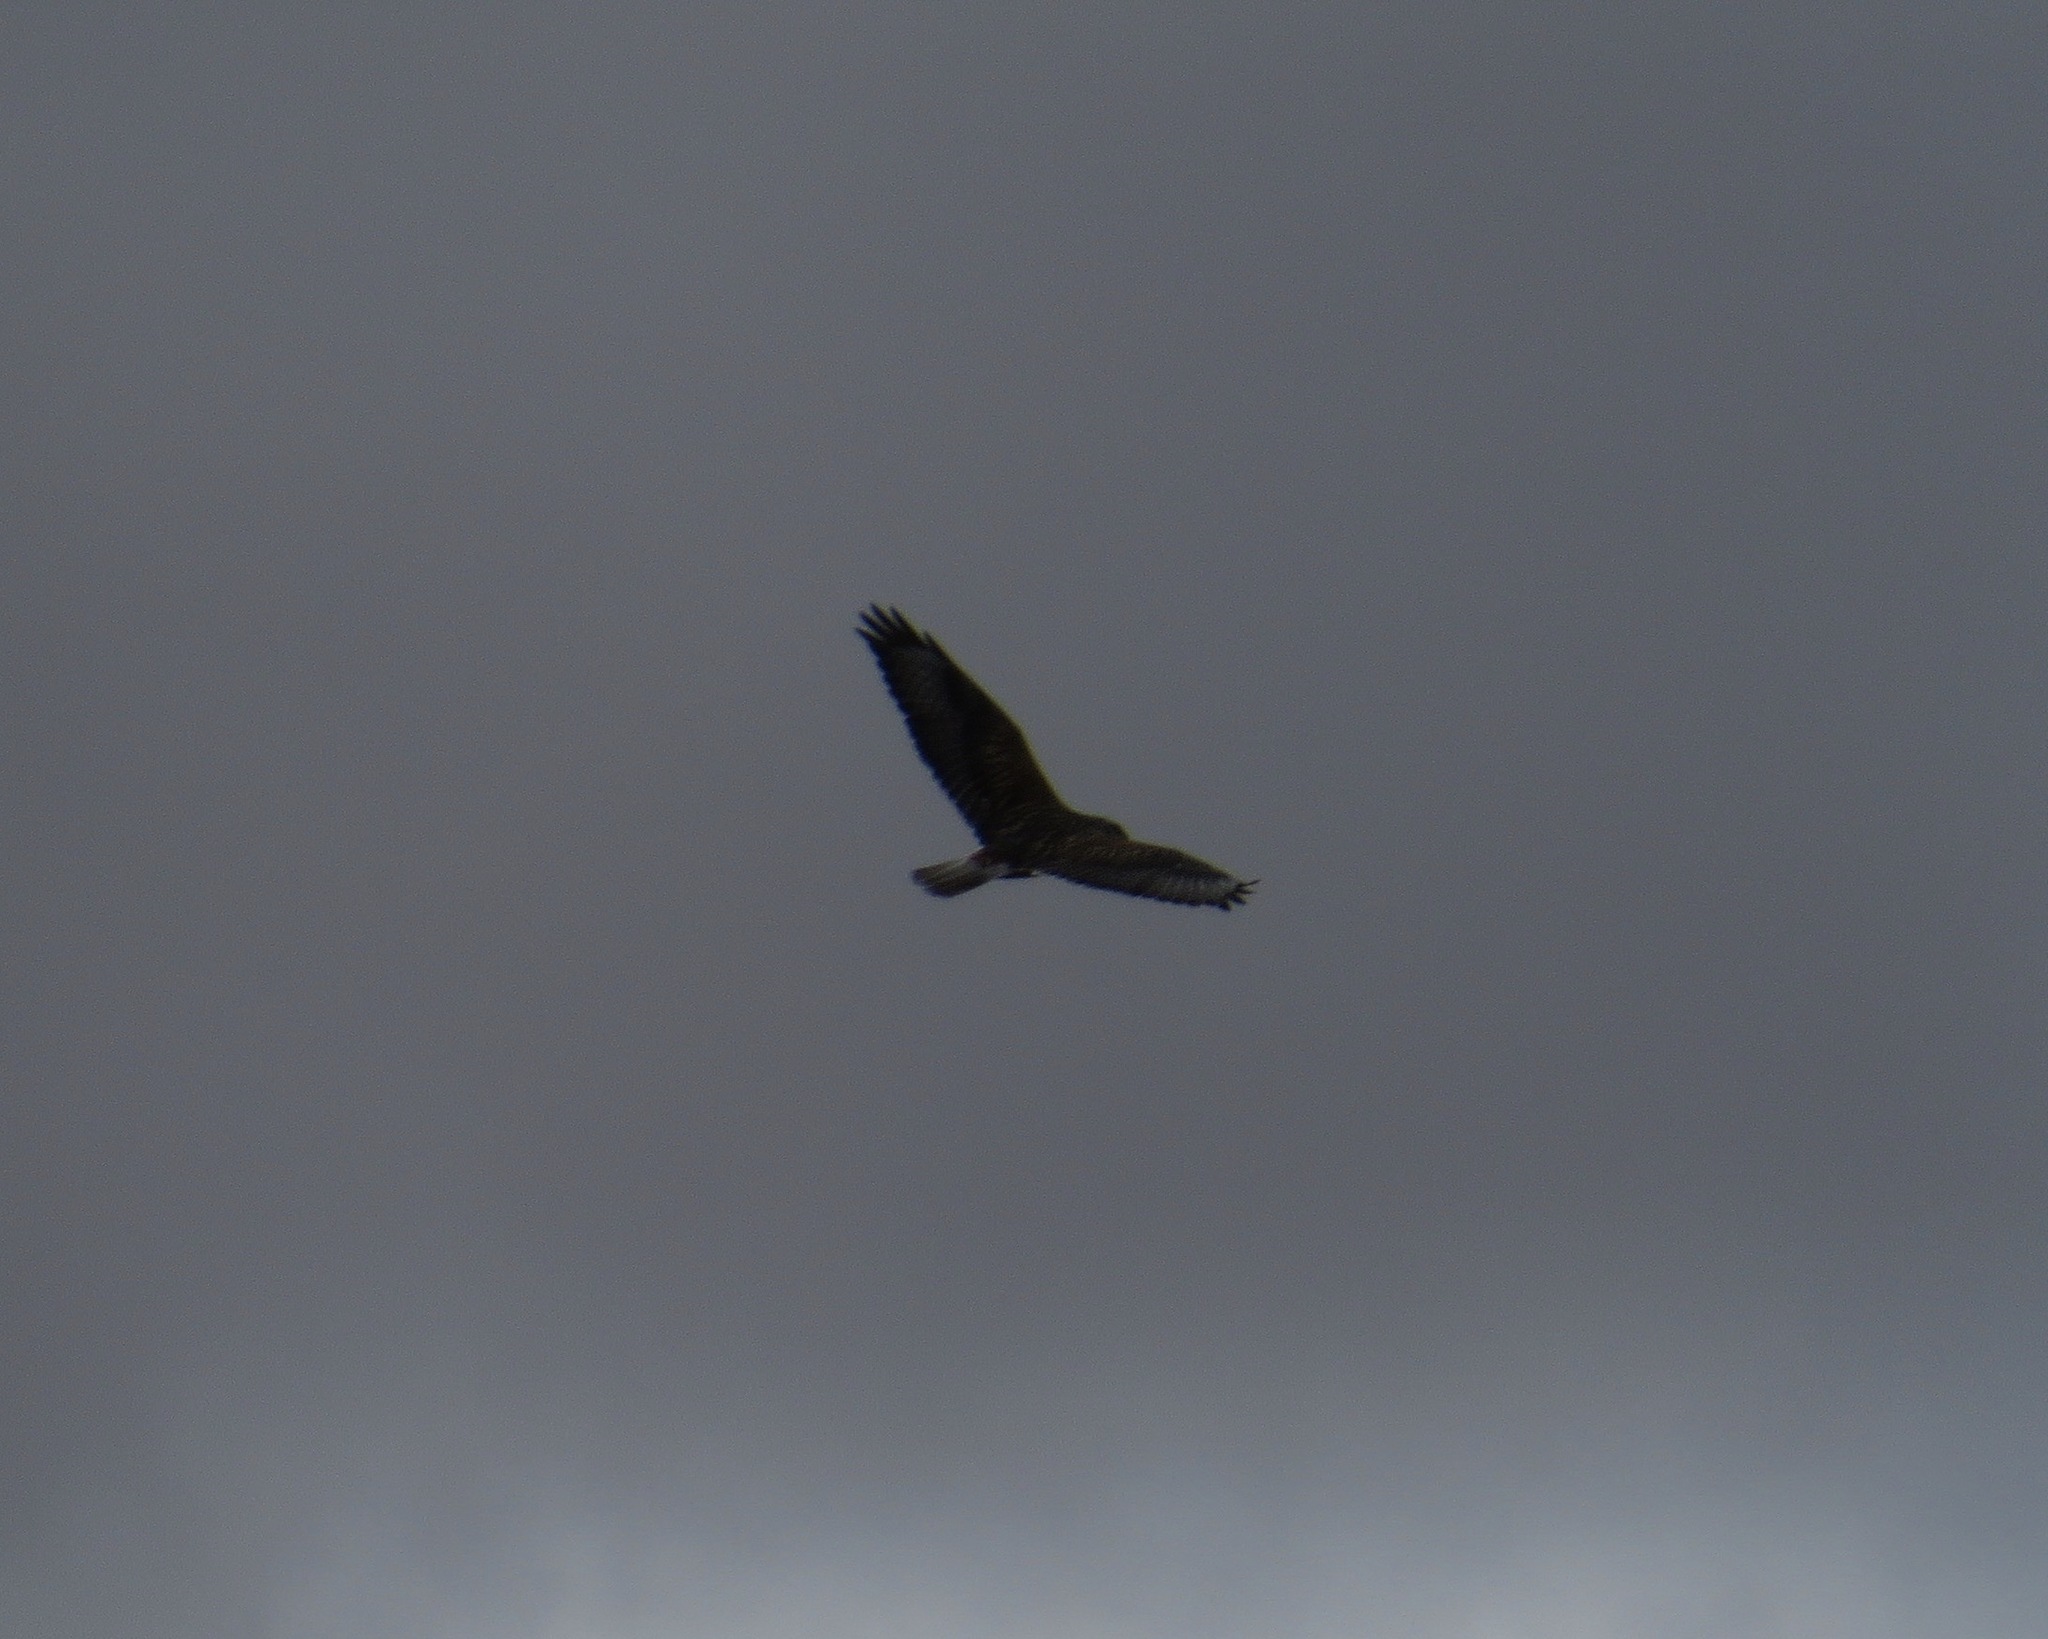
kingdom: Animalia
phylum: Chordata
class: Aves
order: Accipitriformes
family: Accipitridae
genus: Buteo
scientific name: Buteo regalis
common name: Ferruginous hawk
